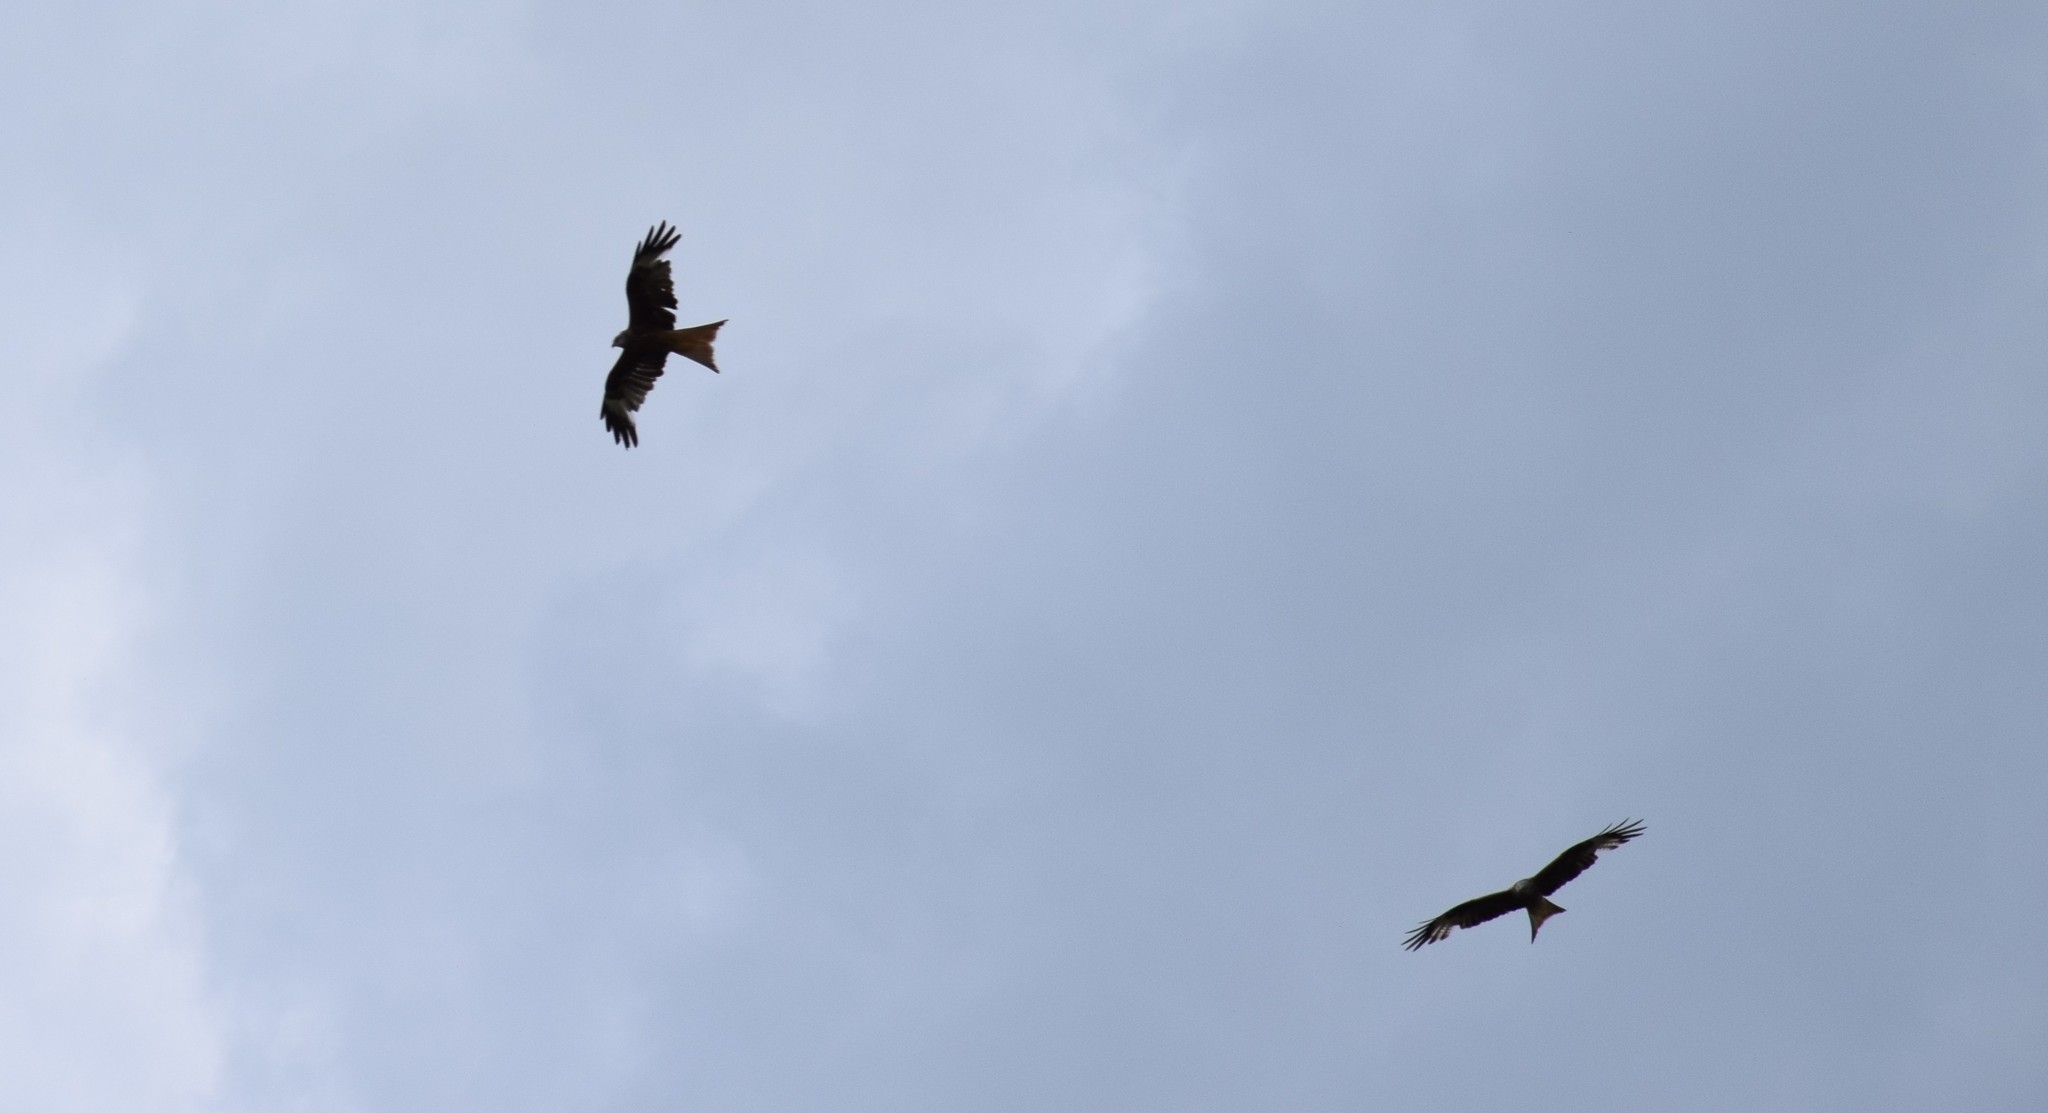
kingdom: Animalia
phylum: Chordata
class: Aves
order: Accipitriformes
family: Accipitridae
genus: Milvus
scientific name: Milvus milvus
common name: Red kite
